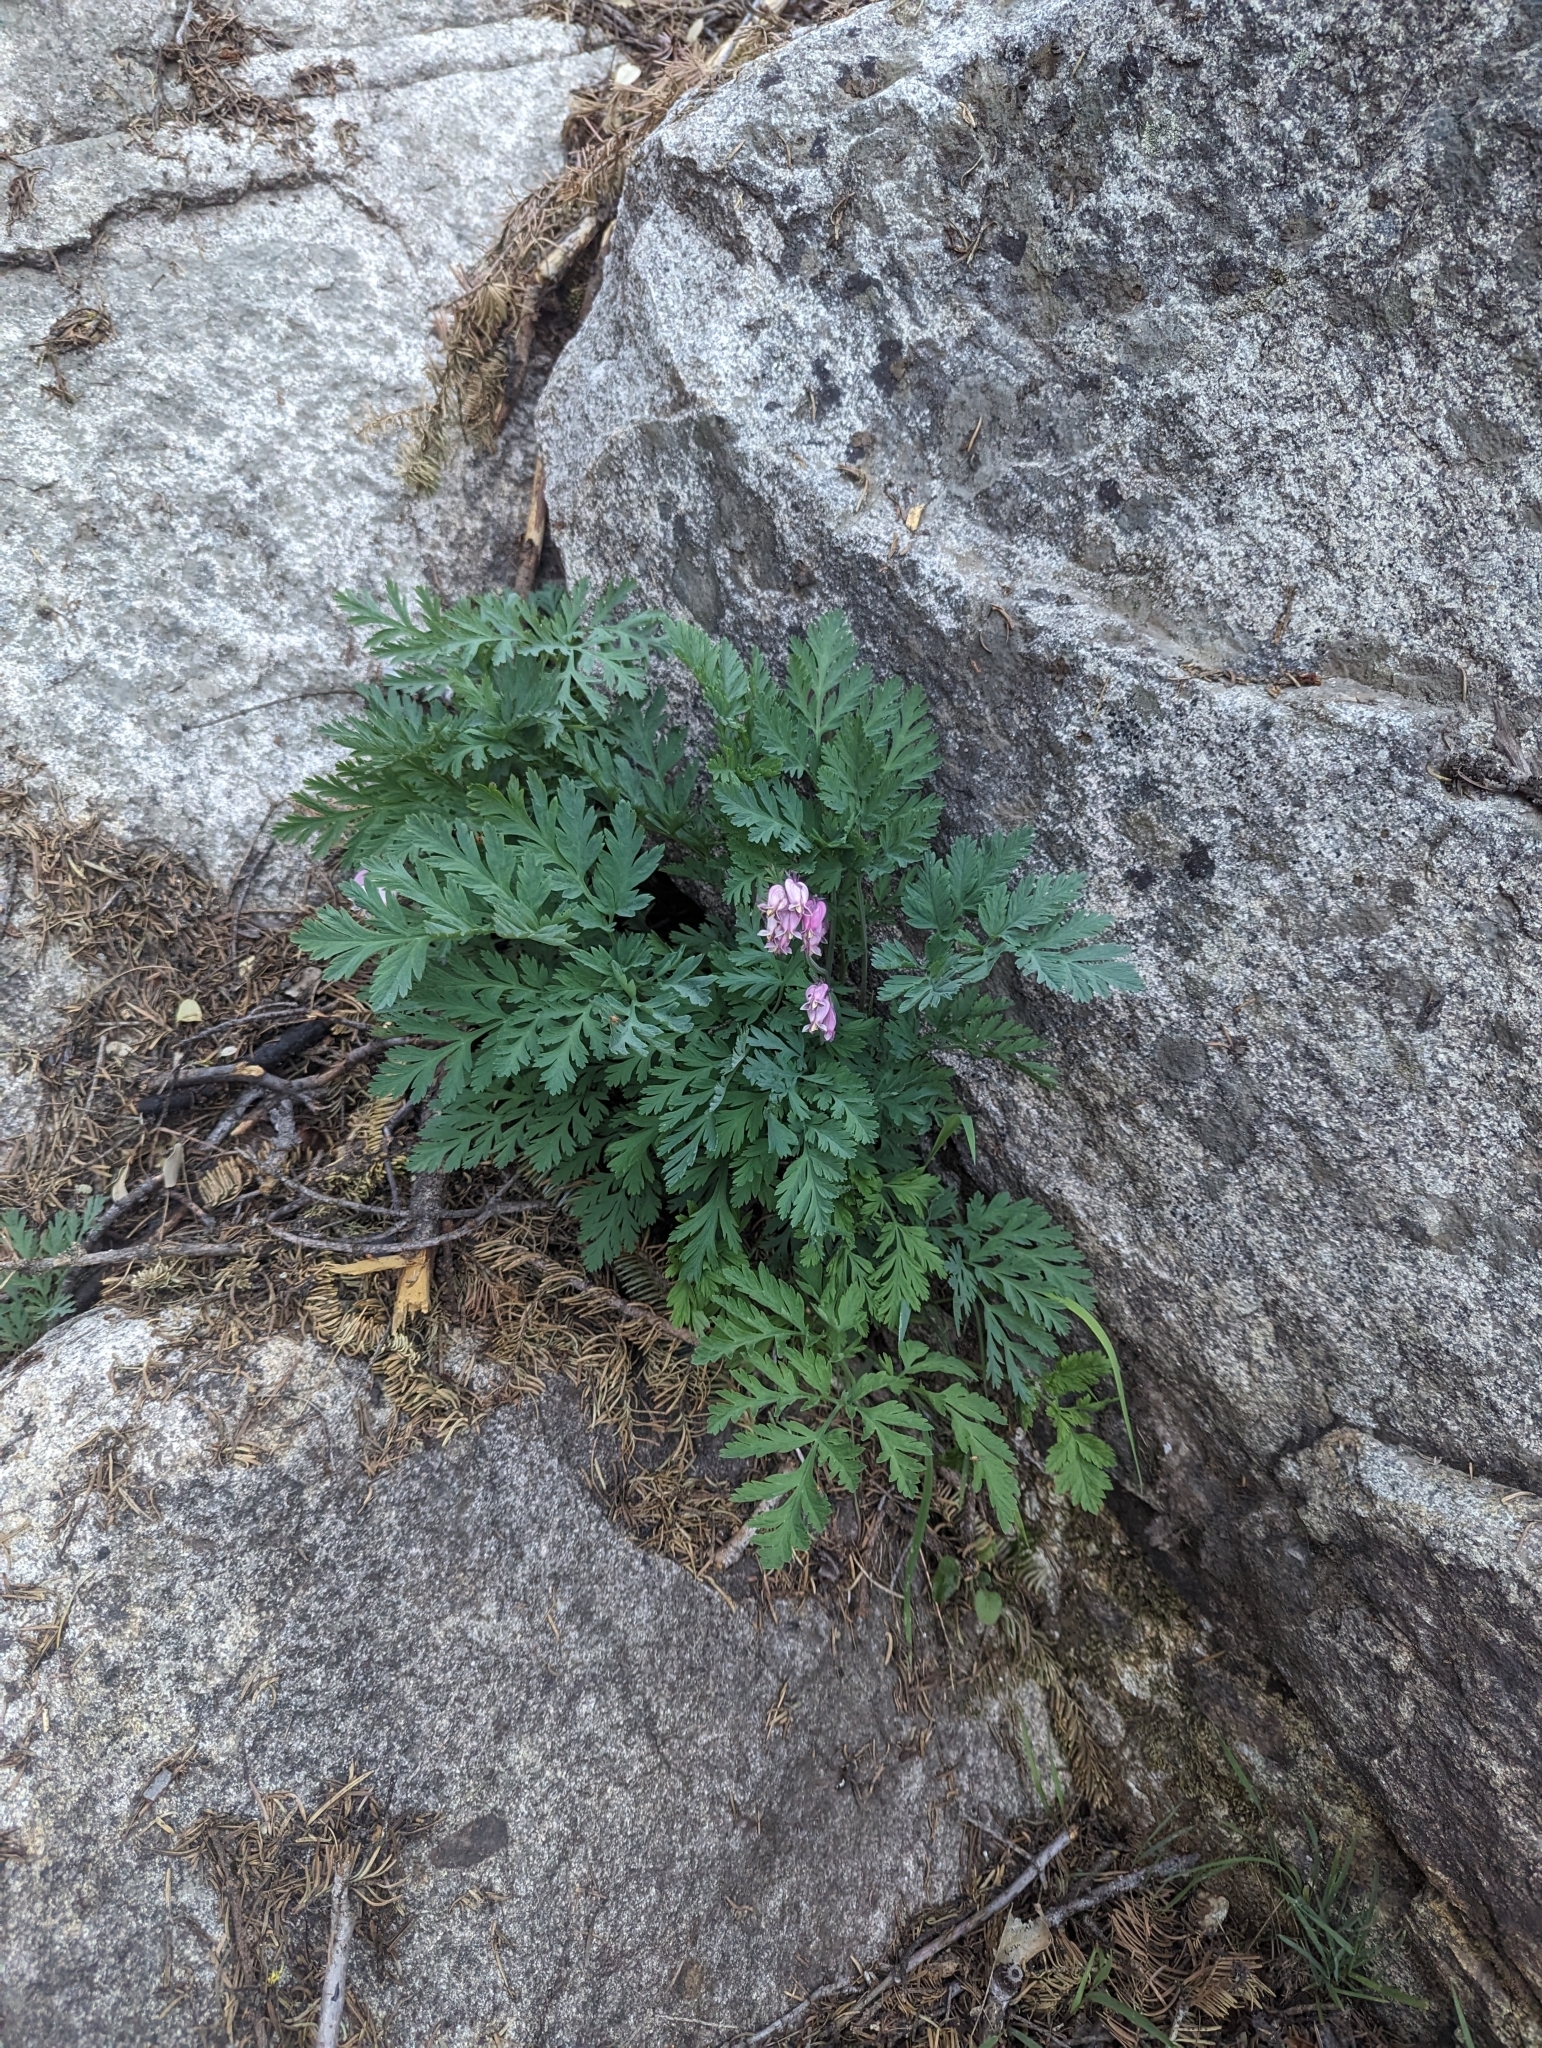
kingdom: Plantae
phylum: Tracheophyta
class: Magnoliopsida
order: Ranunculales
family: Papaveraceae
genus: Dicentra
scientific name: Dicentra formosa
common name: Bleeding-heart
